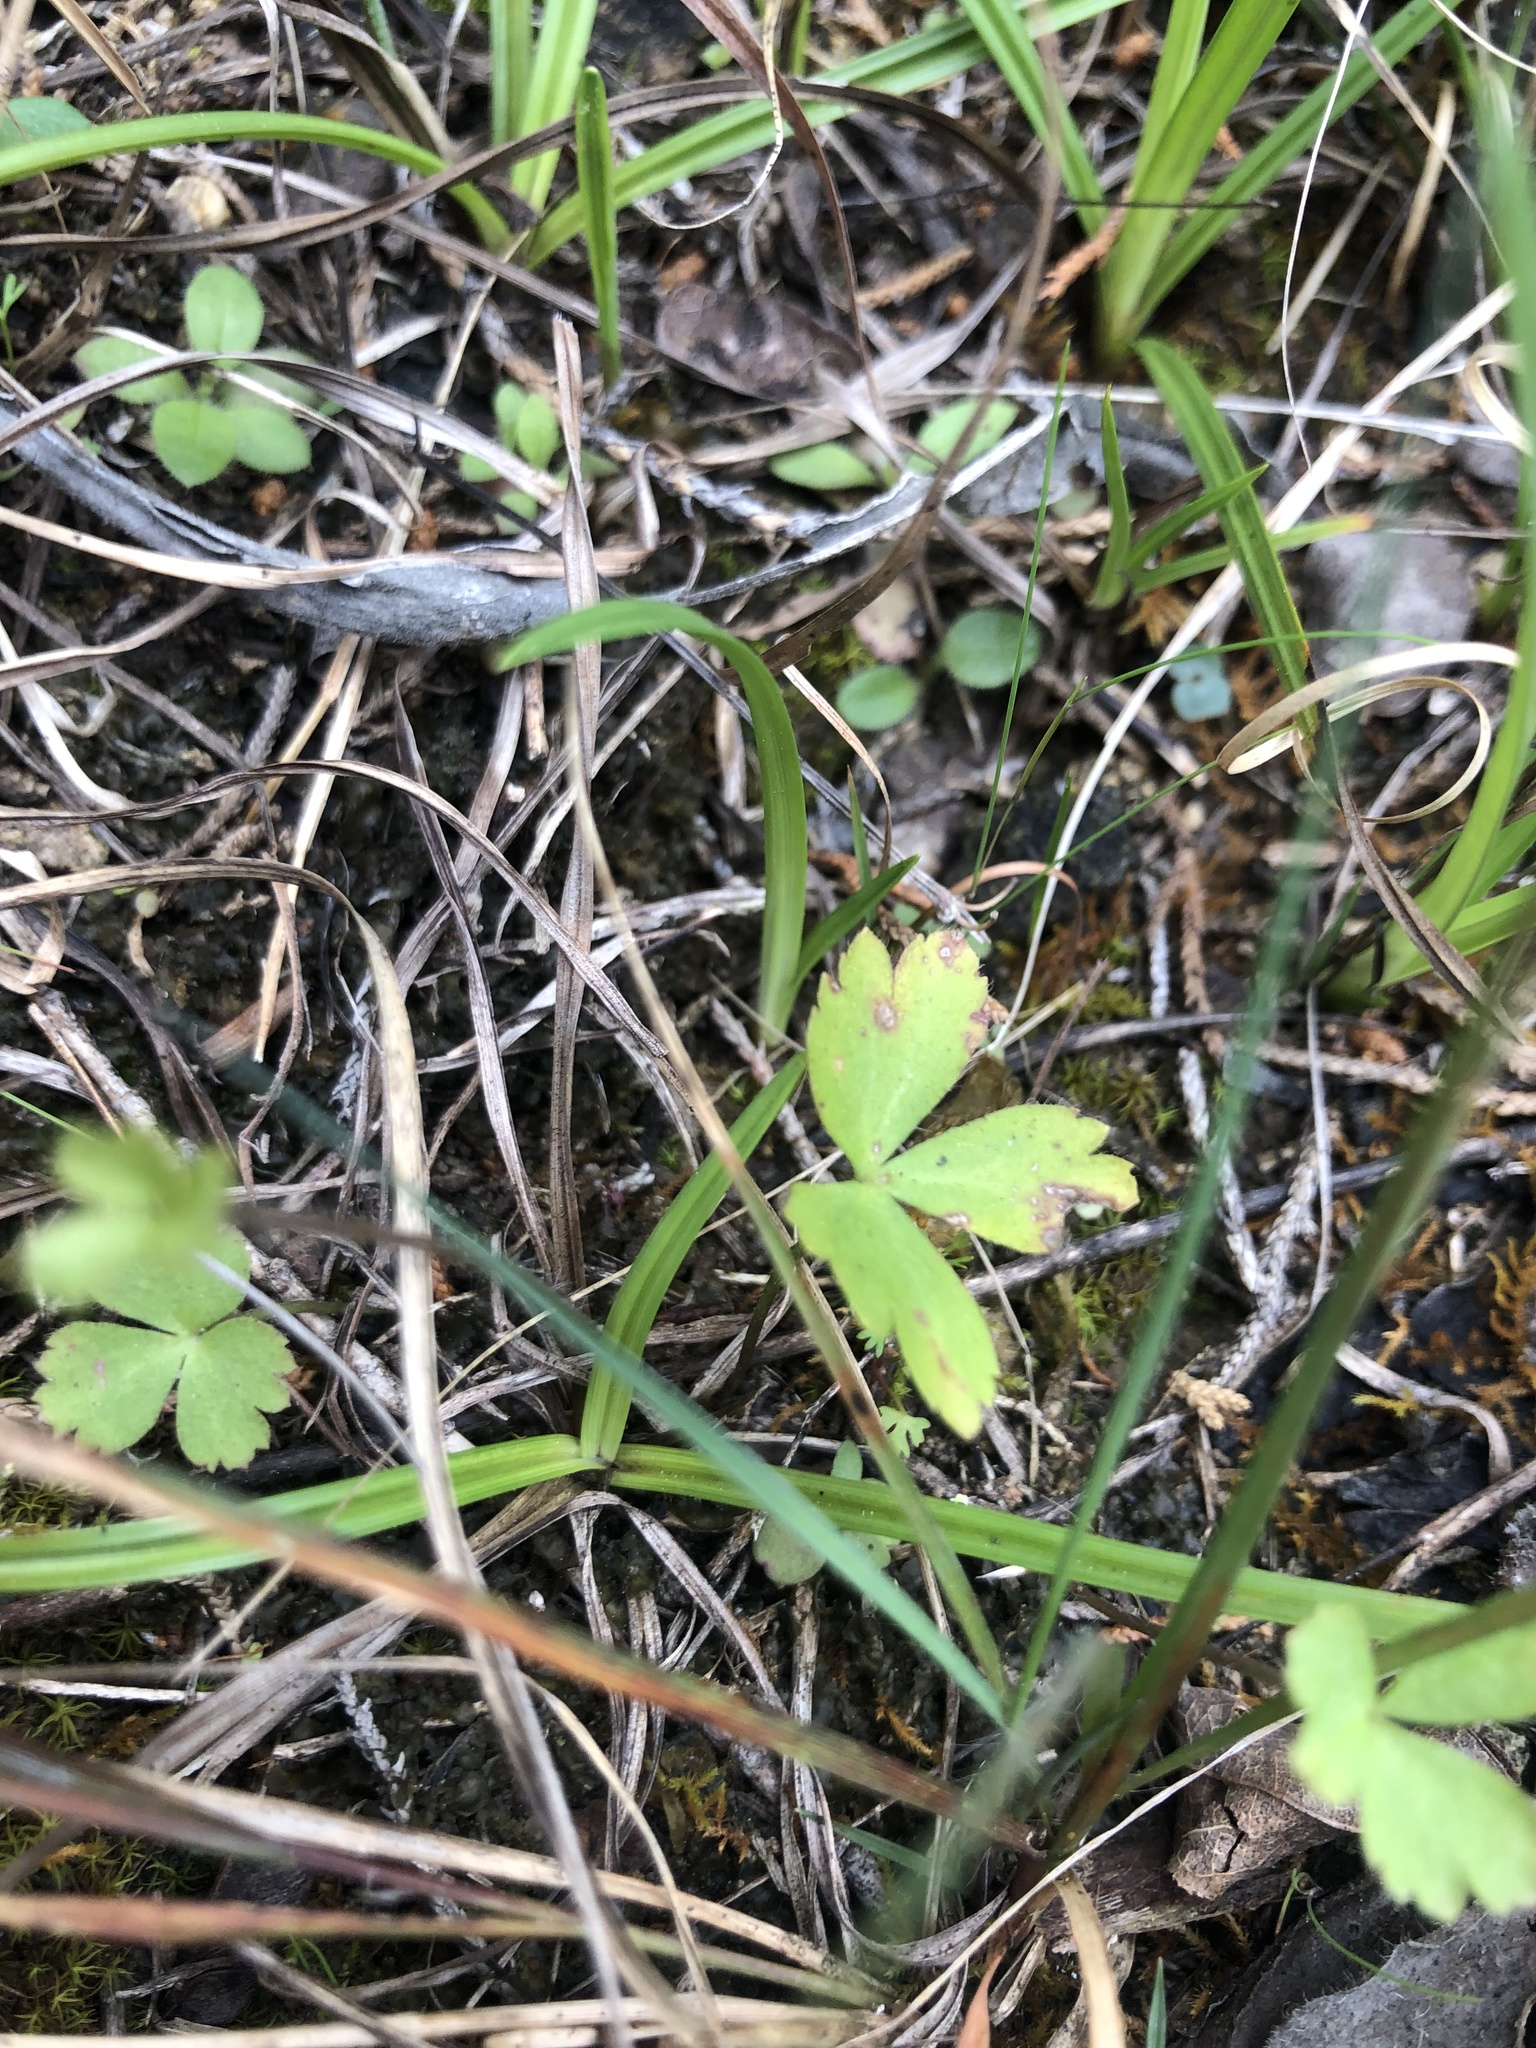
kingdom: Plantae
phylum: Tracheophyta
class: Magnoliopsida
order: Ranunculales
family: Ranunculaceae
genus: Anemone
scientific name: Anemone berlandieri
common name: Ten-petal anemone
